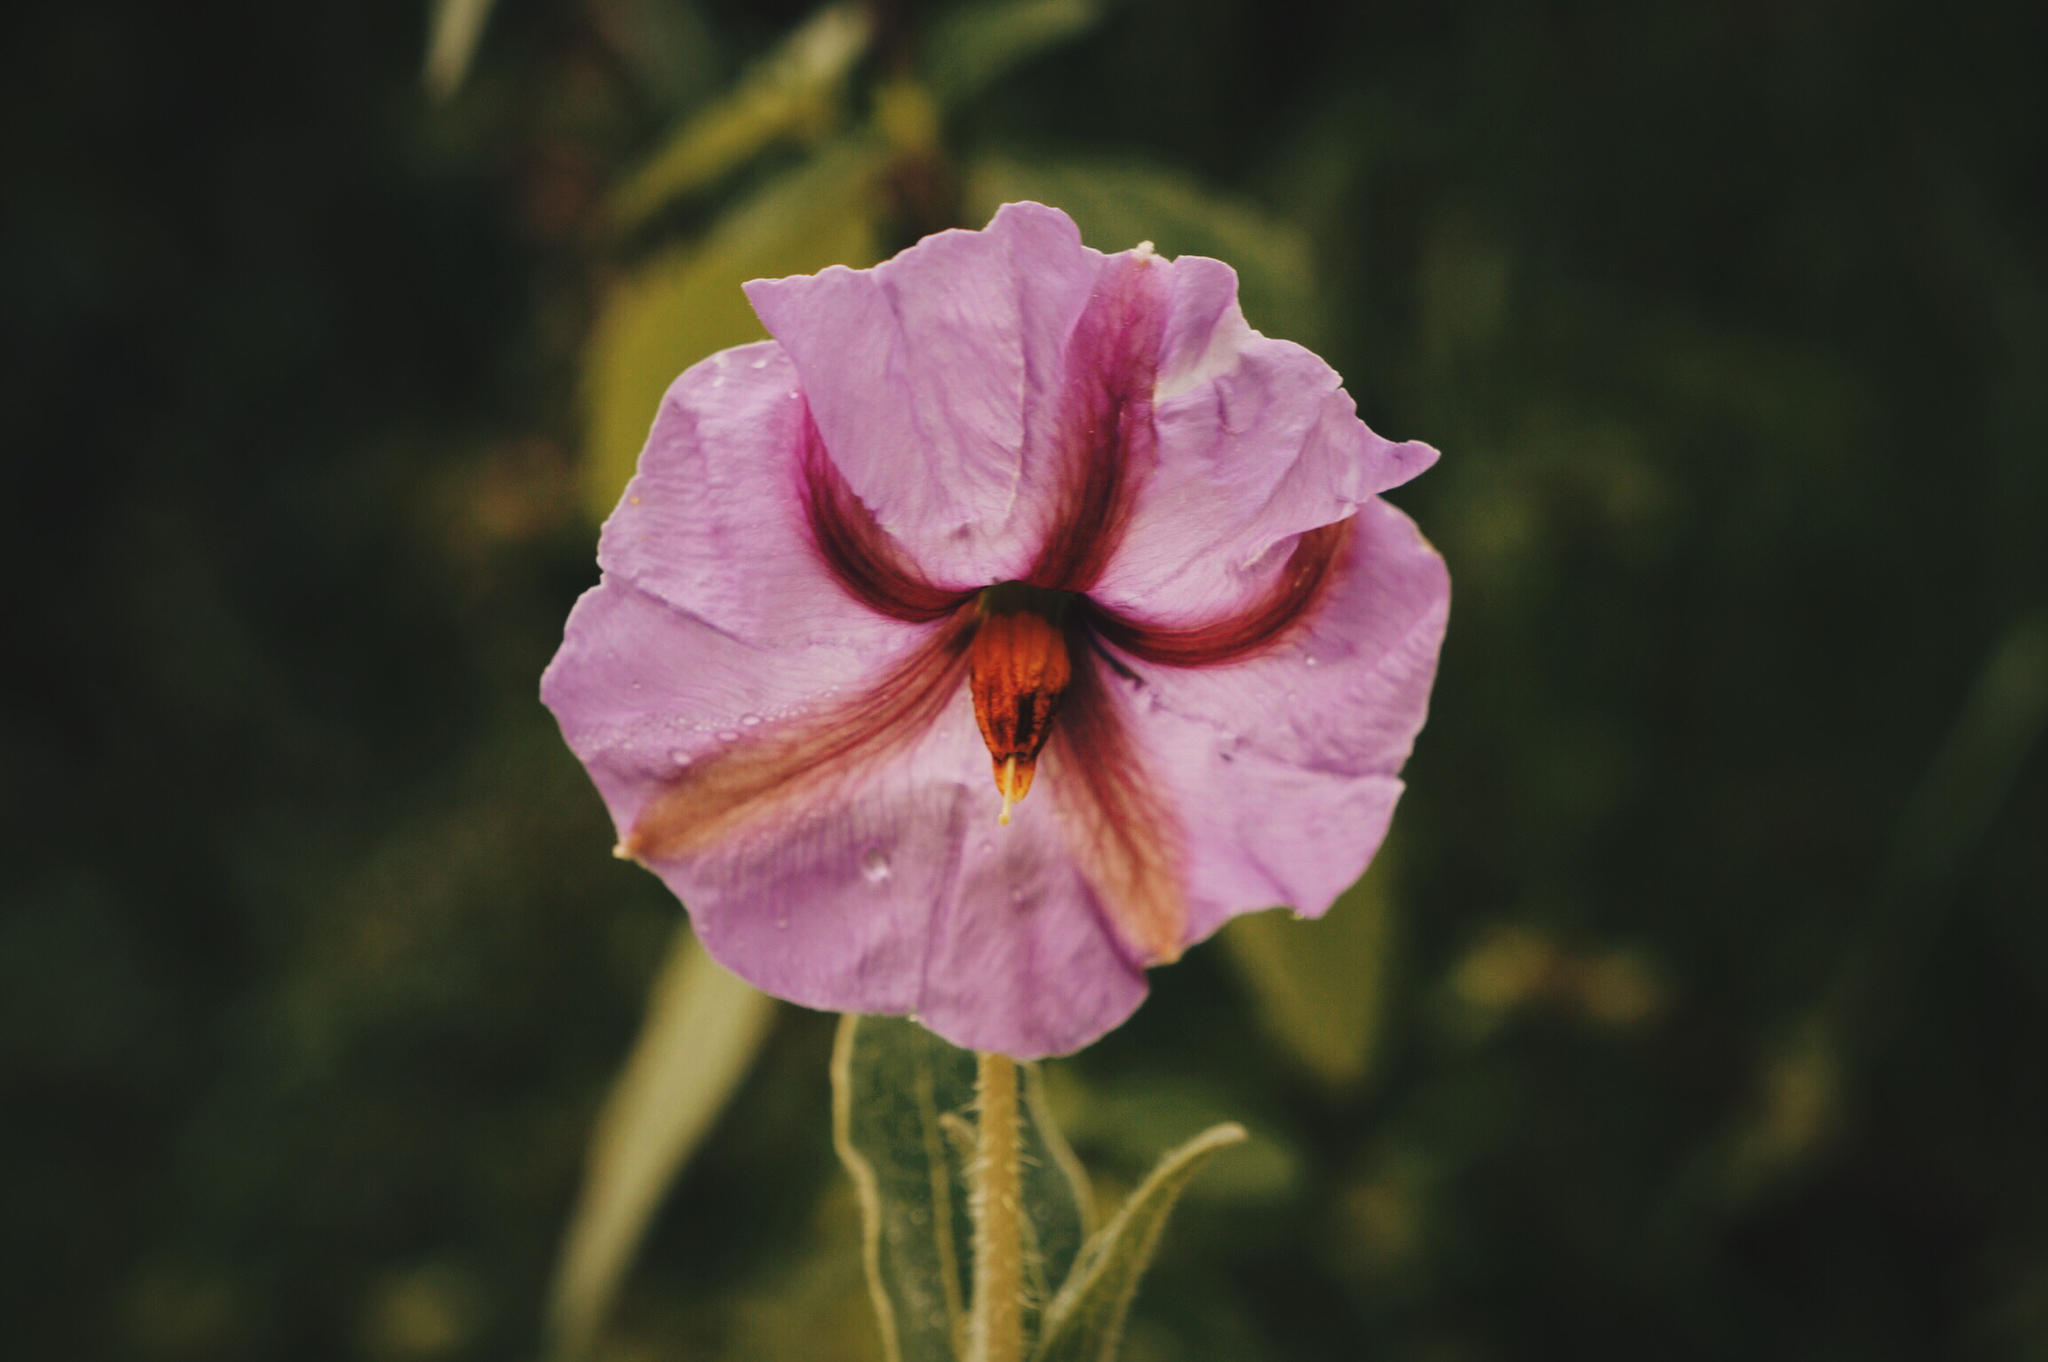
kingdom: Plantae
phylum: Tracheophyta
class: Magnoliopsida
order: Solanales
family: Solanaceae
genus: Lycianthes
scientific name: Lycianthes moziniana
